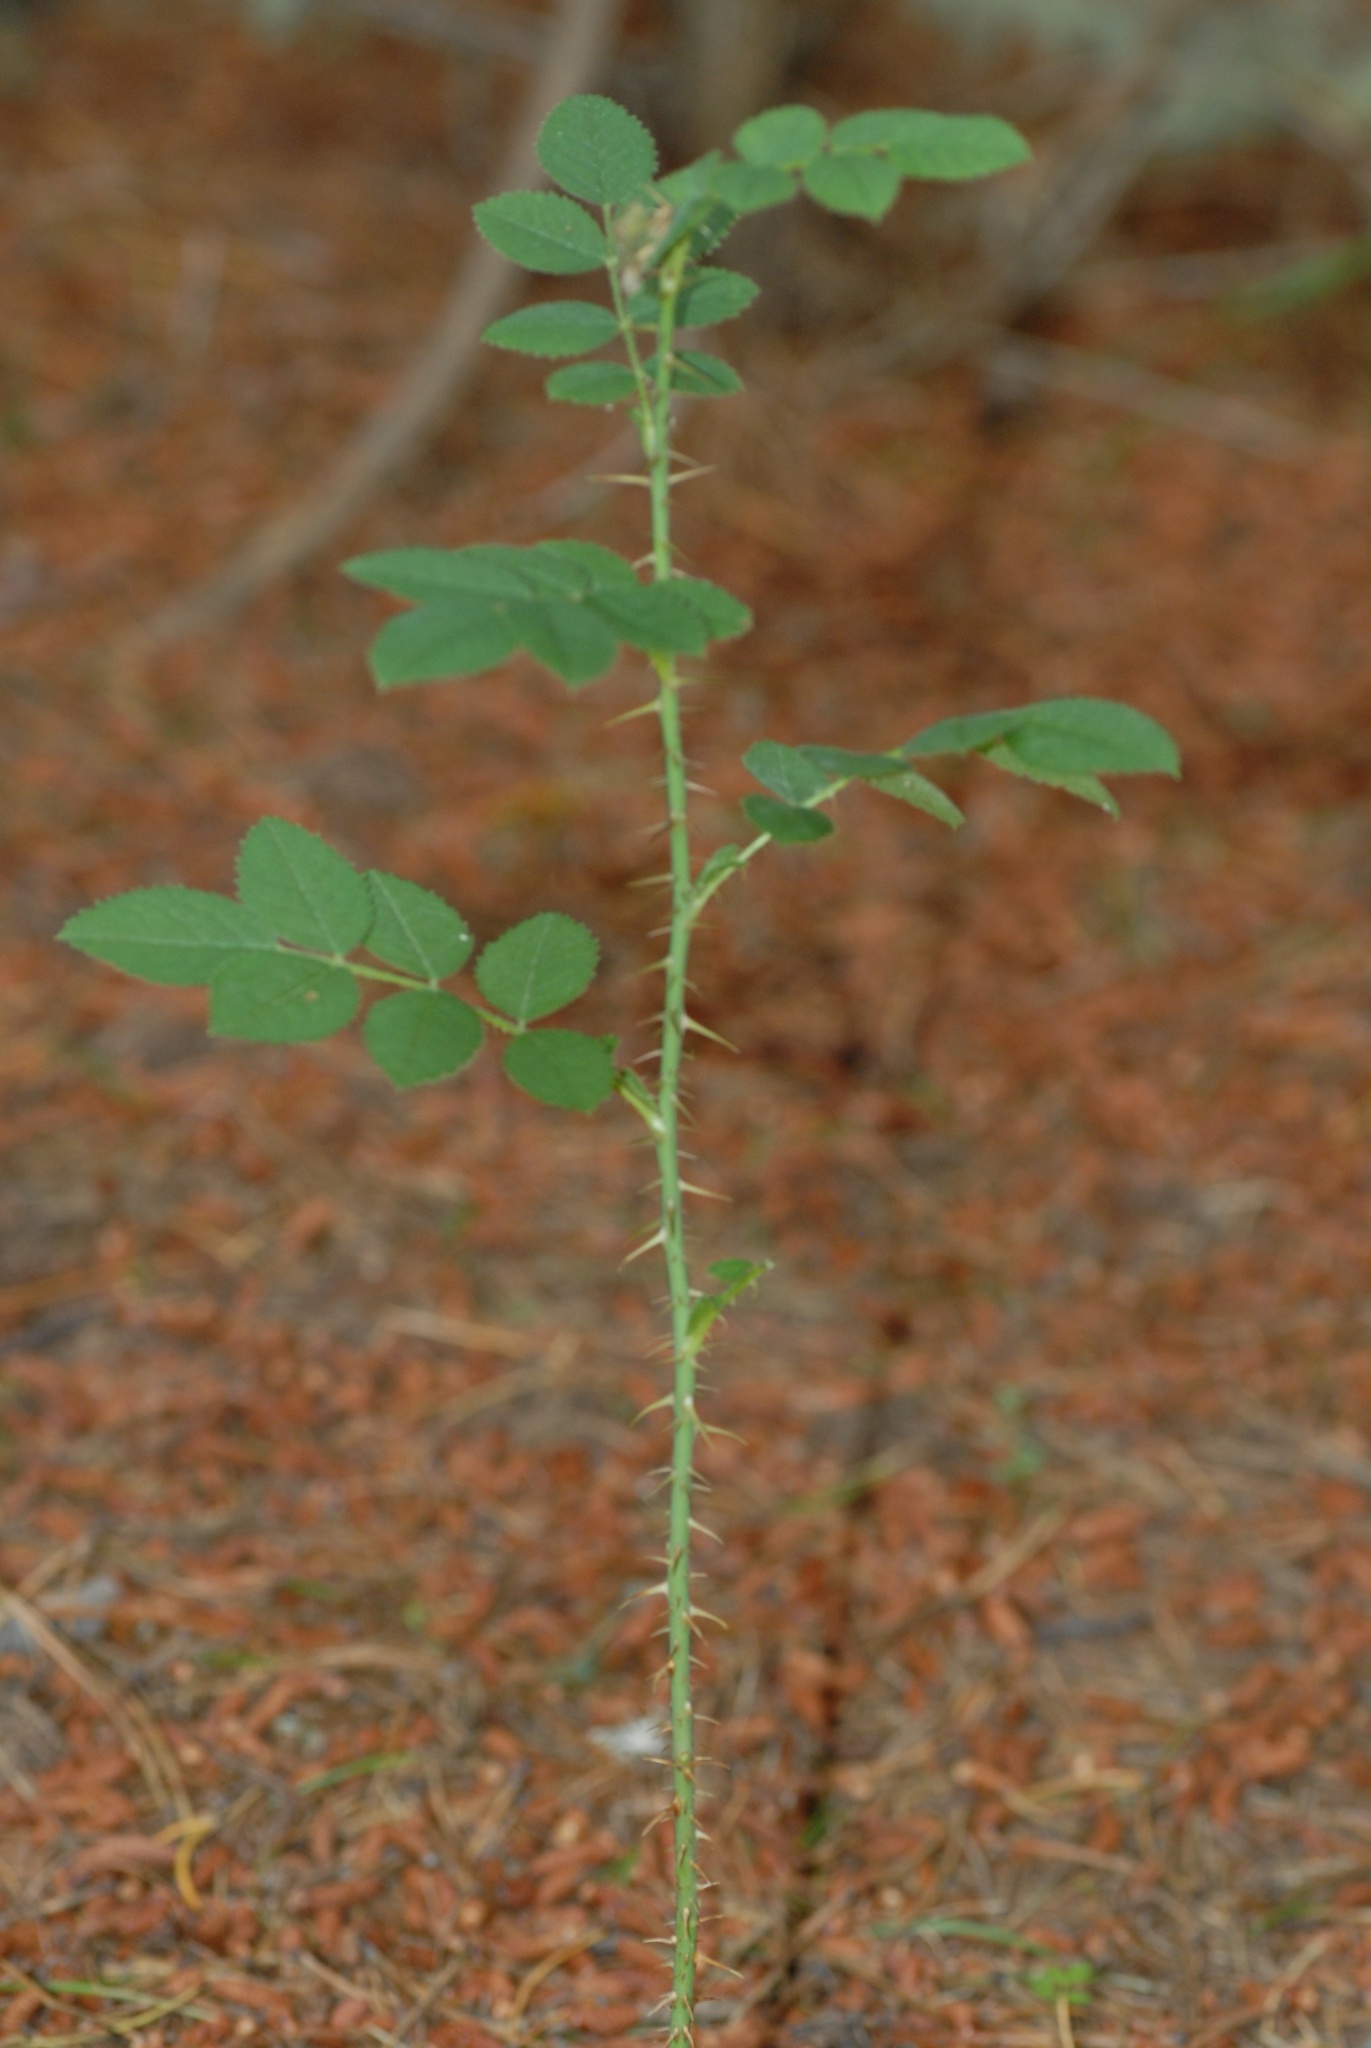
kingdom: Plantae
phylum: Tracheophyta
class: Magnoliopsida
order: Rosales
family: Rosaceae
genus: Rosa
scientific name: Rosa rubiginosa
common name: Sweet-briar
